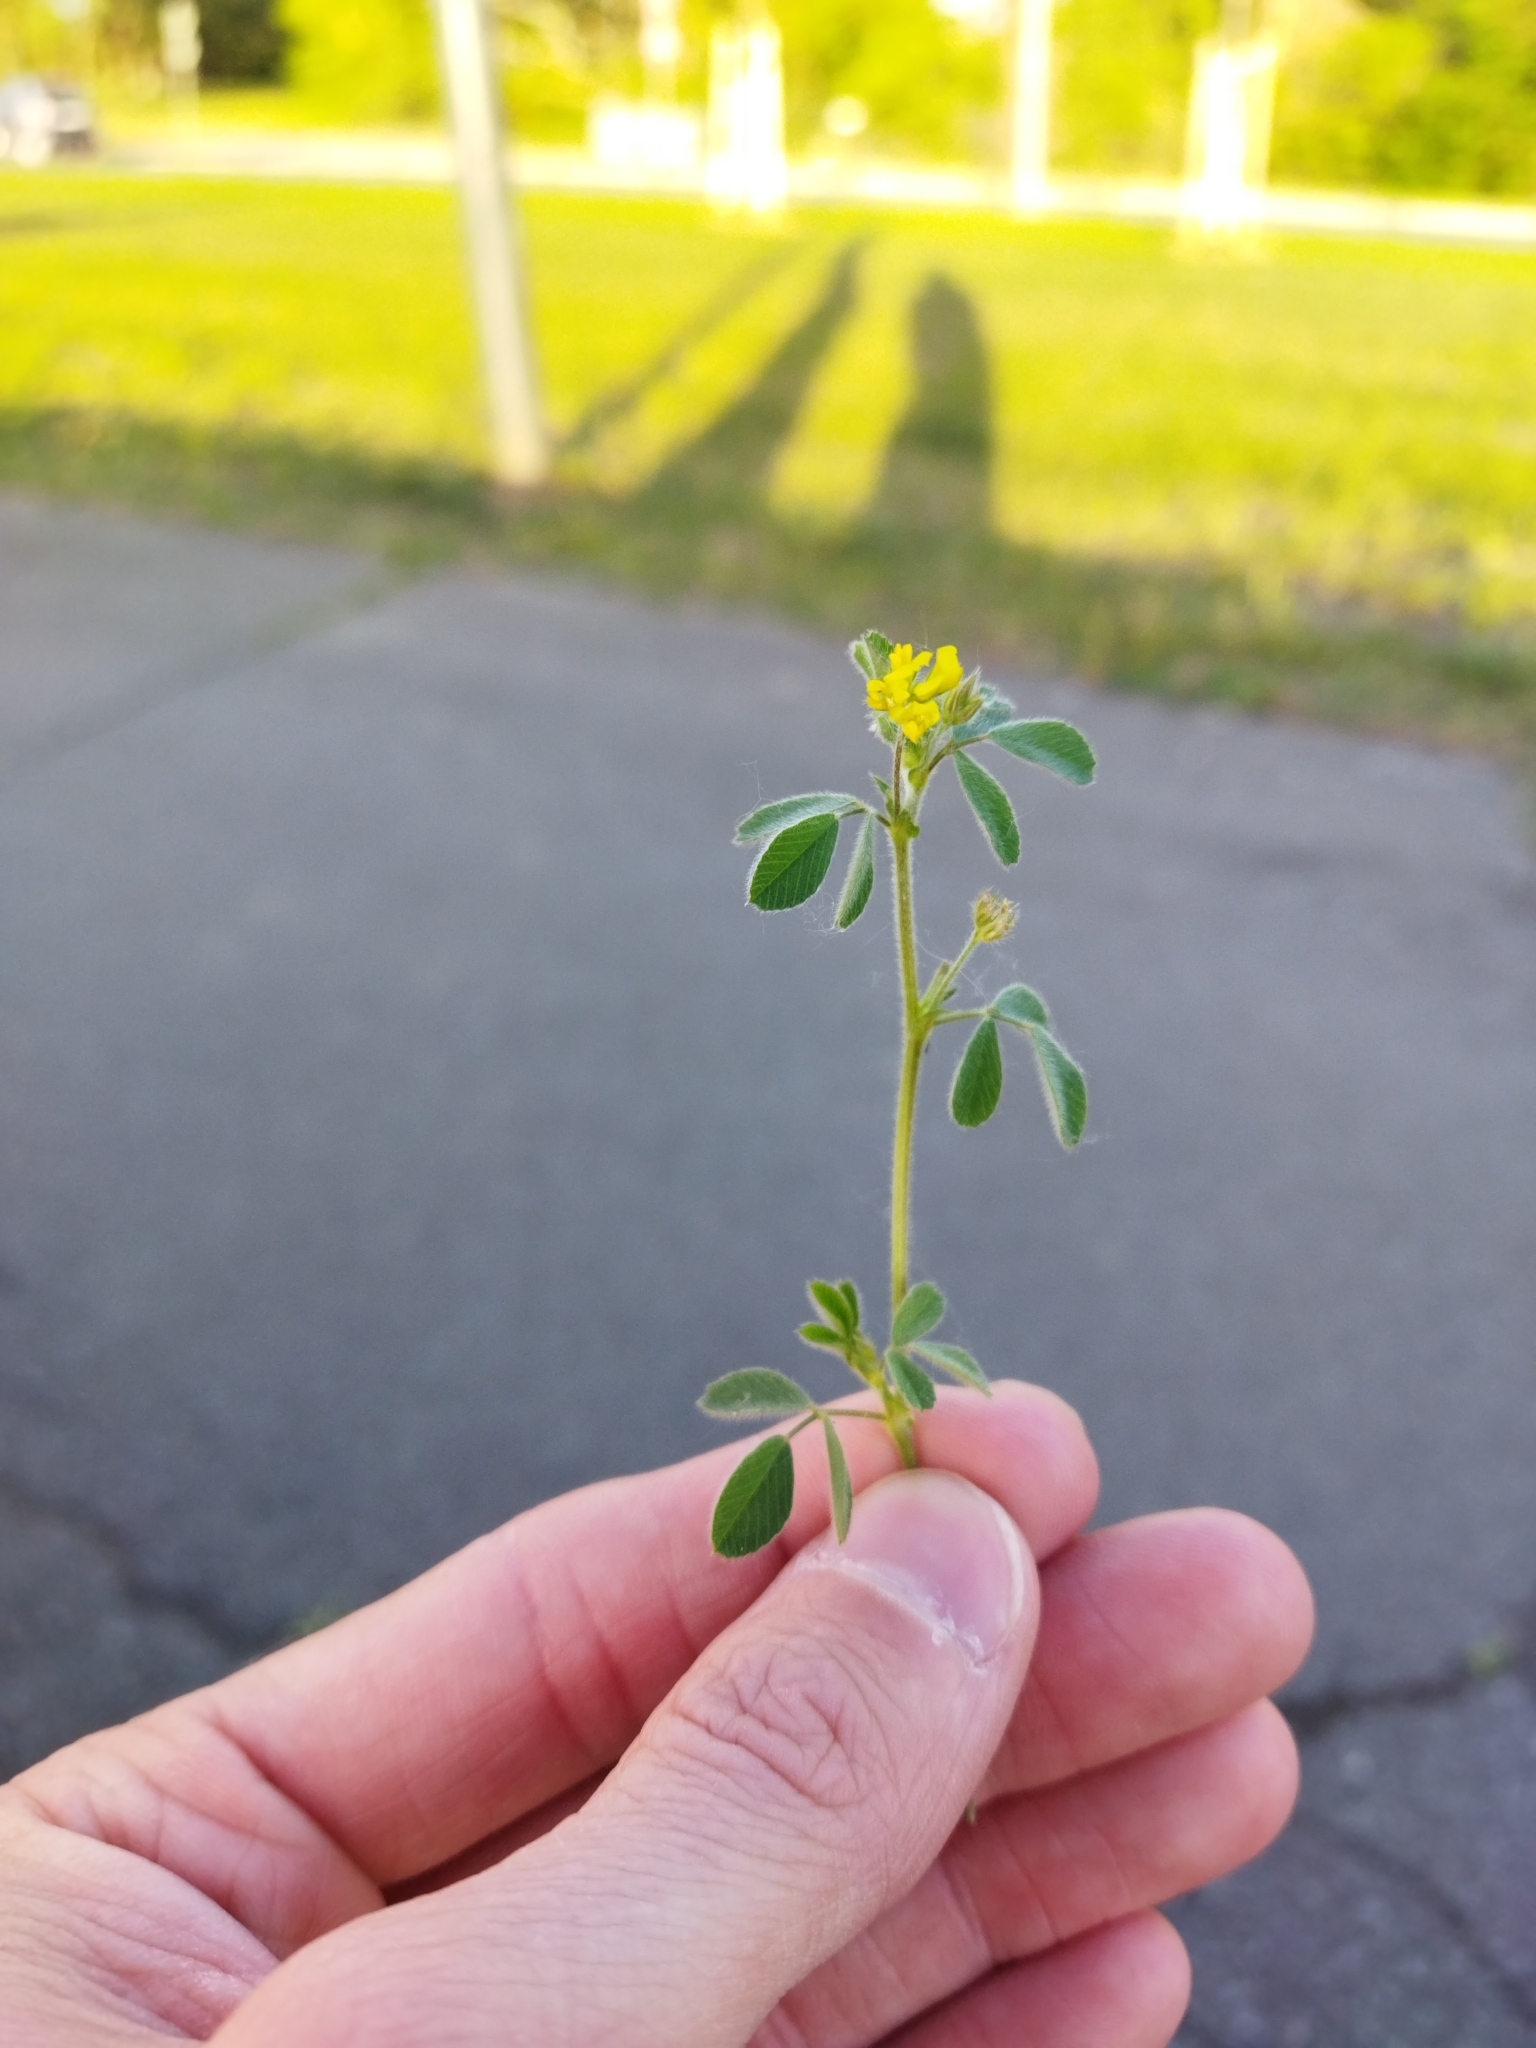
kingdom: Plantae
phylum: Tracheophyta
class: Magnoliopsida
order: Fabales
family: Fabaceae
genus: Medicago
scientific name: Medicago lupulina
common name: Black medick
